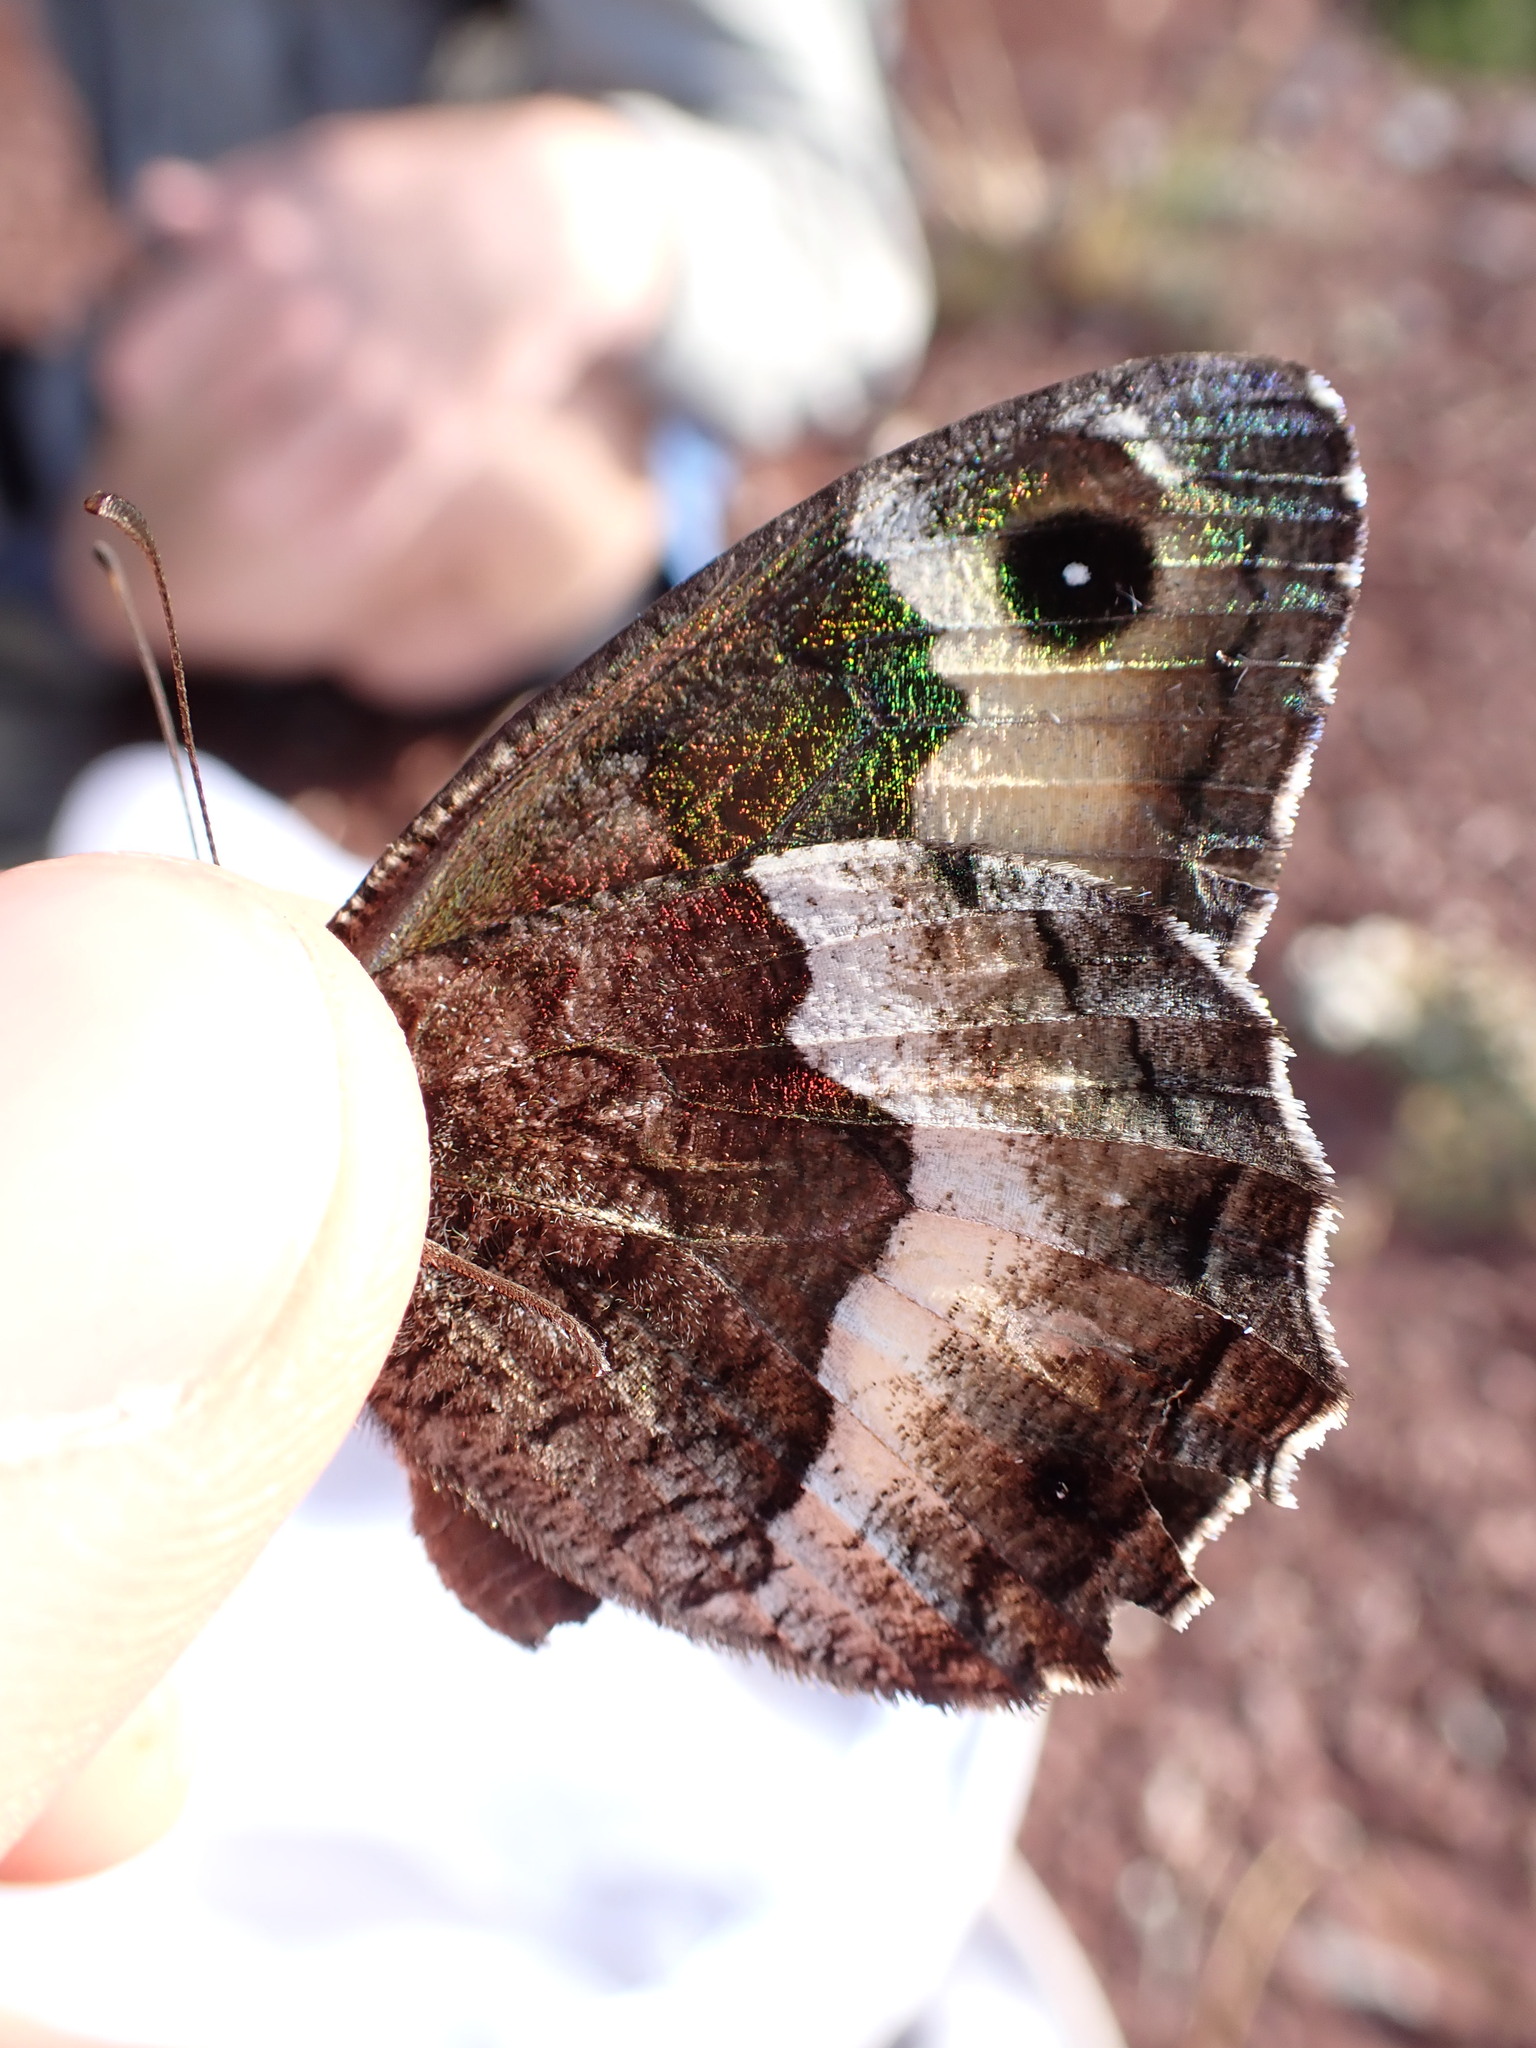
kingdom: Animalia
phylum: Arthropoda
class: Insecta
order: Lepidoptera
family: Nymphalidae
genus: Hipparchia
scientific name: Hipparchia hermione
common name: Rock grayling
